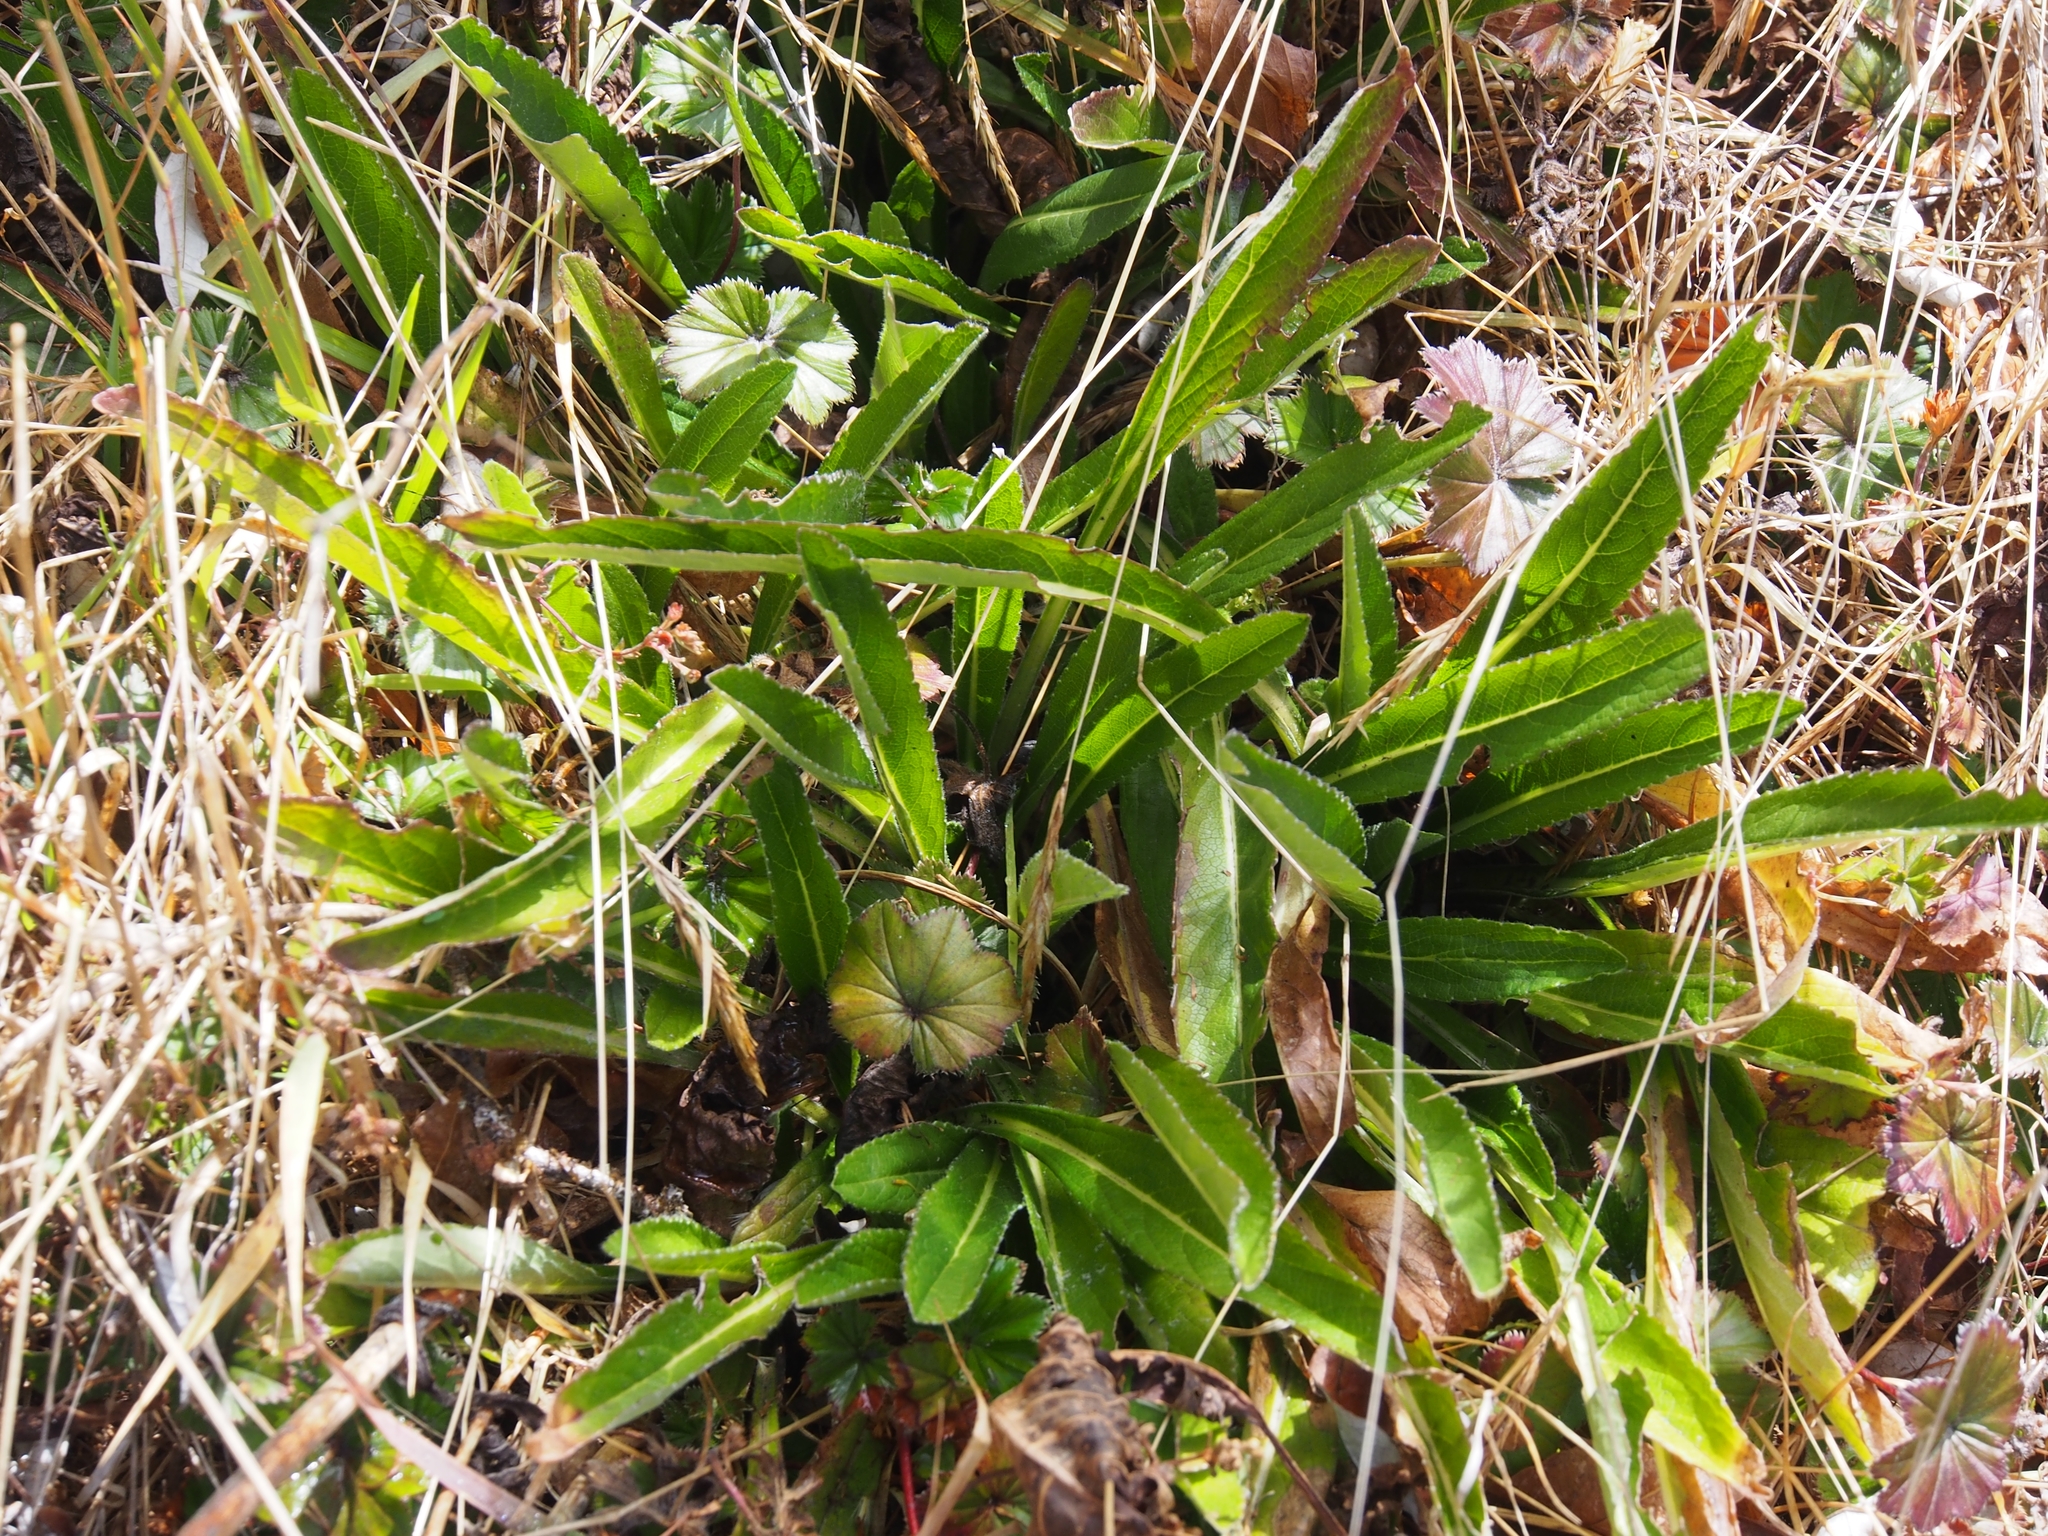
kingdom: Plantae
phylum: Tracheophyta
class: Magnoliopsida
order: Dipsacales
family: Caprifoliaceae
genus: Valeriana
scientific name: Valeriana prionophylla
